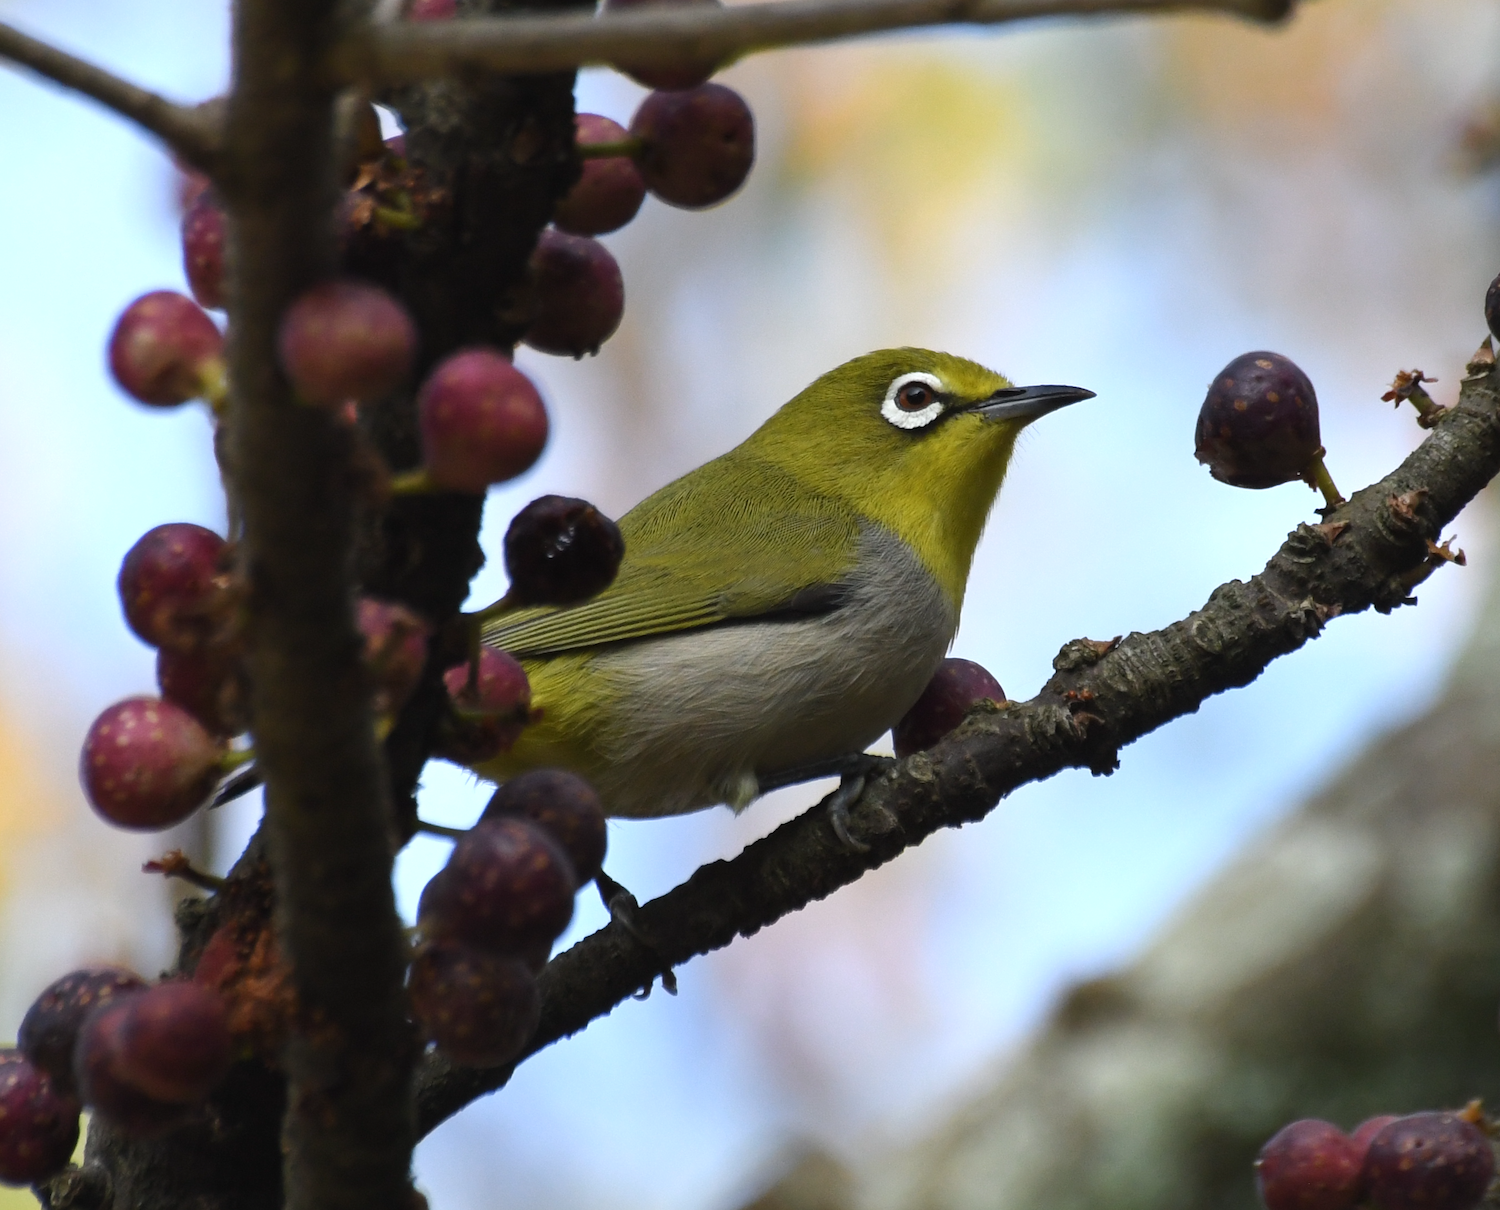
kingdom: Animalia
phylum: Chordata
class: Aves
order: Passeriformes
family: Zosteropidae
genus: Zosterops
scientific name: Zosterops simplex
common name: Swinhoe's white-eye
